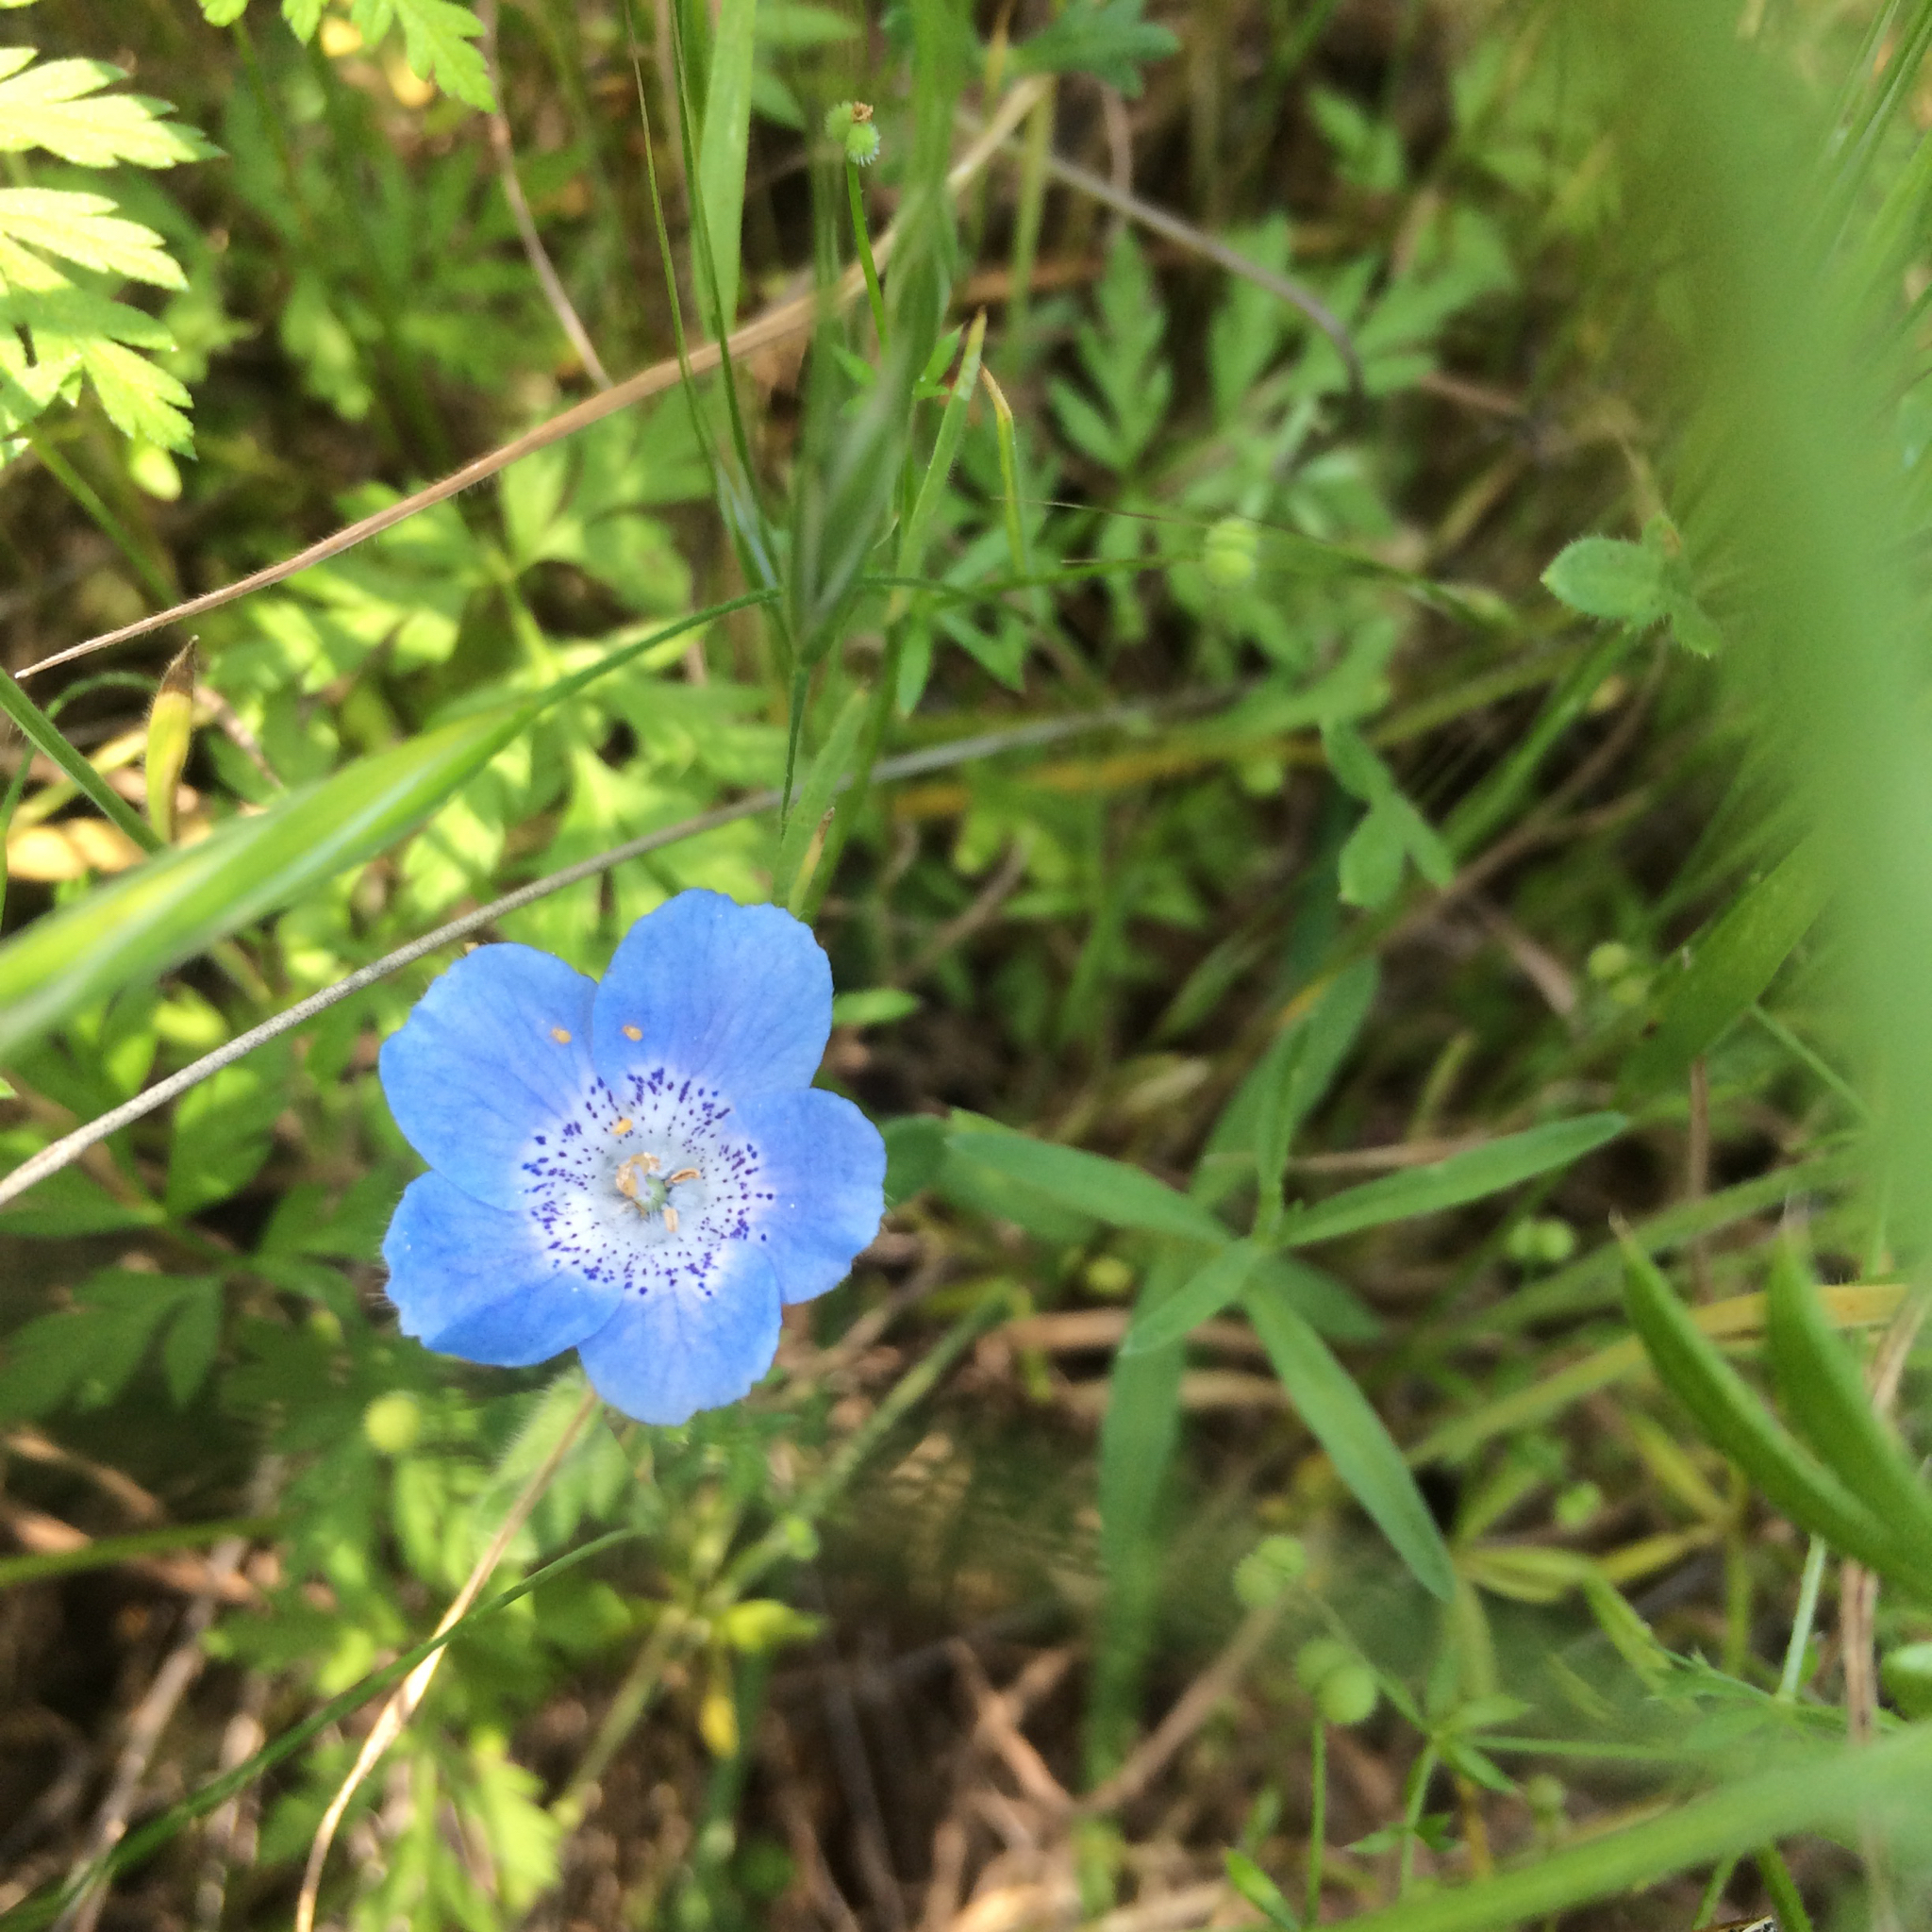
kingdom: Plantae
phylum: Tracheophyta
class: Magnoliopsida
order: Boraginales
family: Hydrophyllaceae
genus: Nemophila
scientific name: Nemophila menziesii
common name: Baby's-blue-eyes
